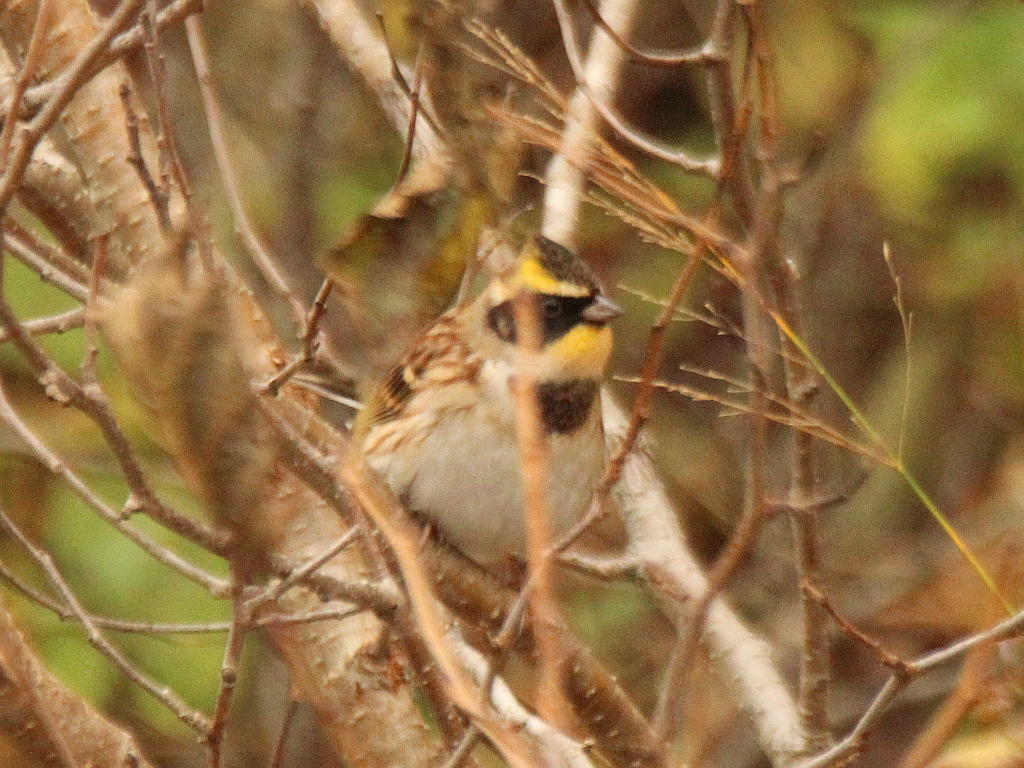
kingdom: Animalia
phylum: Chordata
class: Aves
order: Passeriformes
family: Emberizidae
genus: Emberiza
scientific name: Emberiza elegans
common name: Yellow-throated bunting
